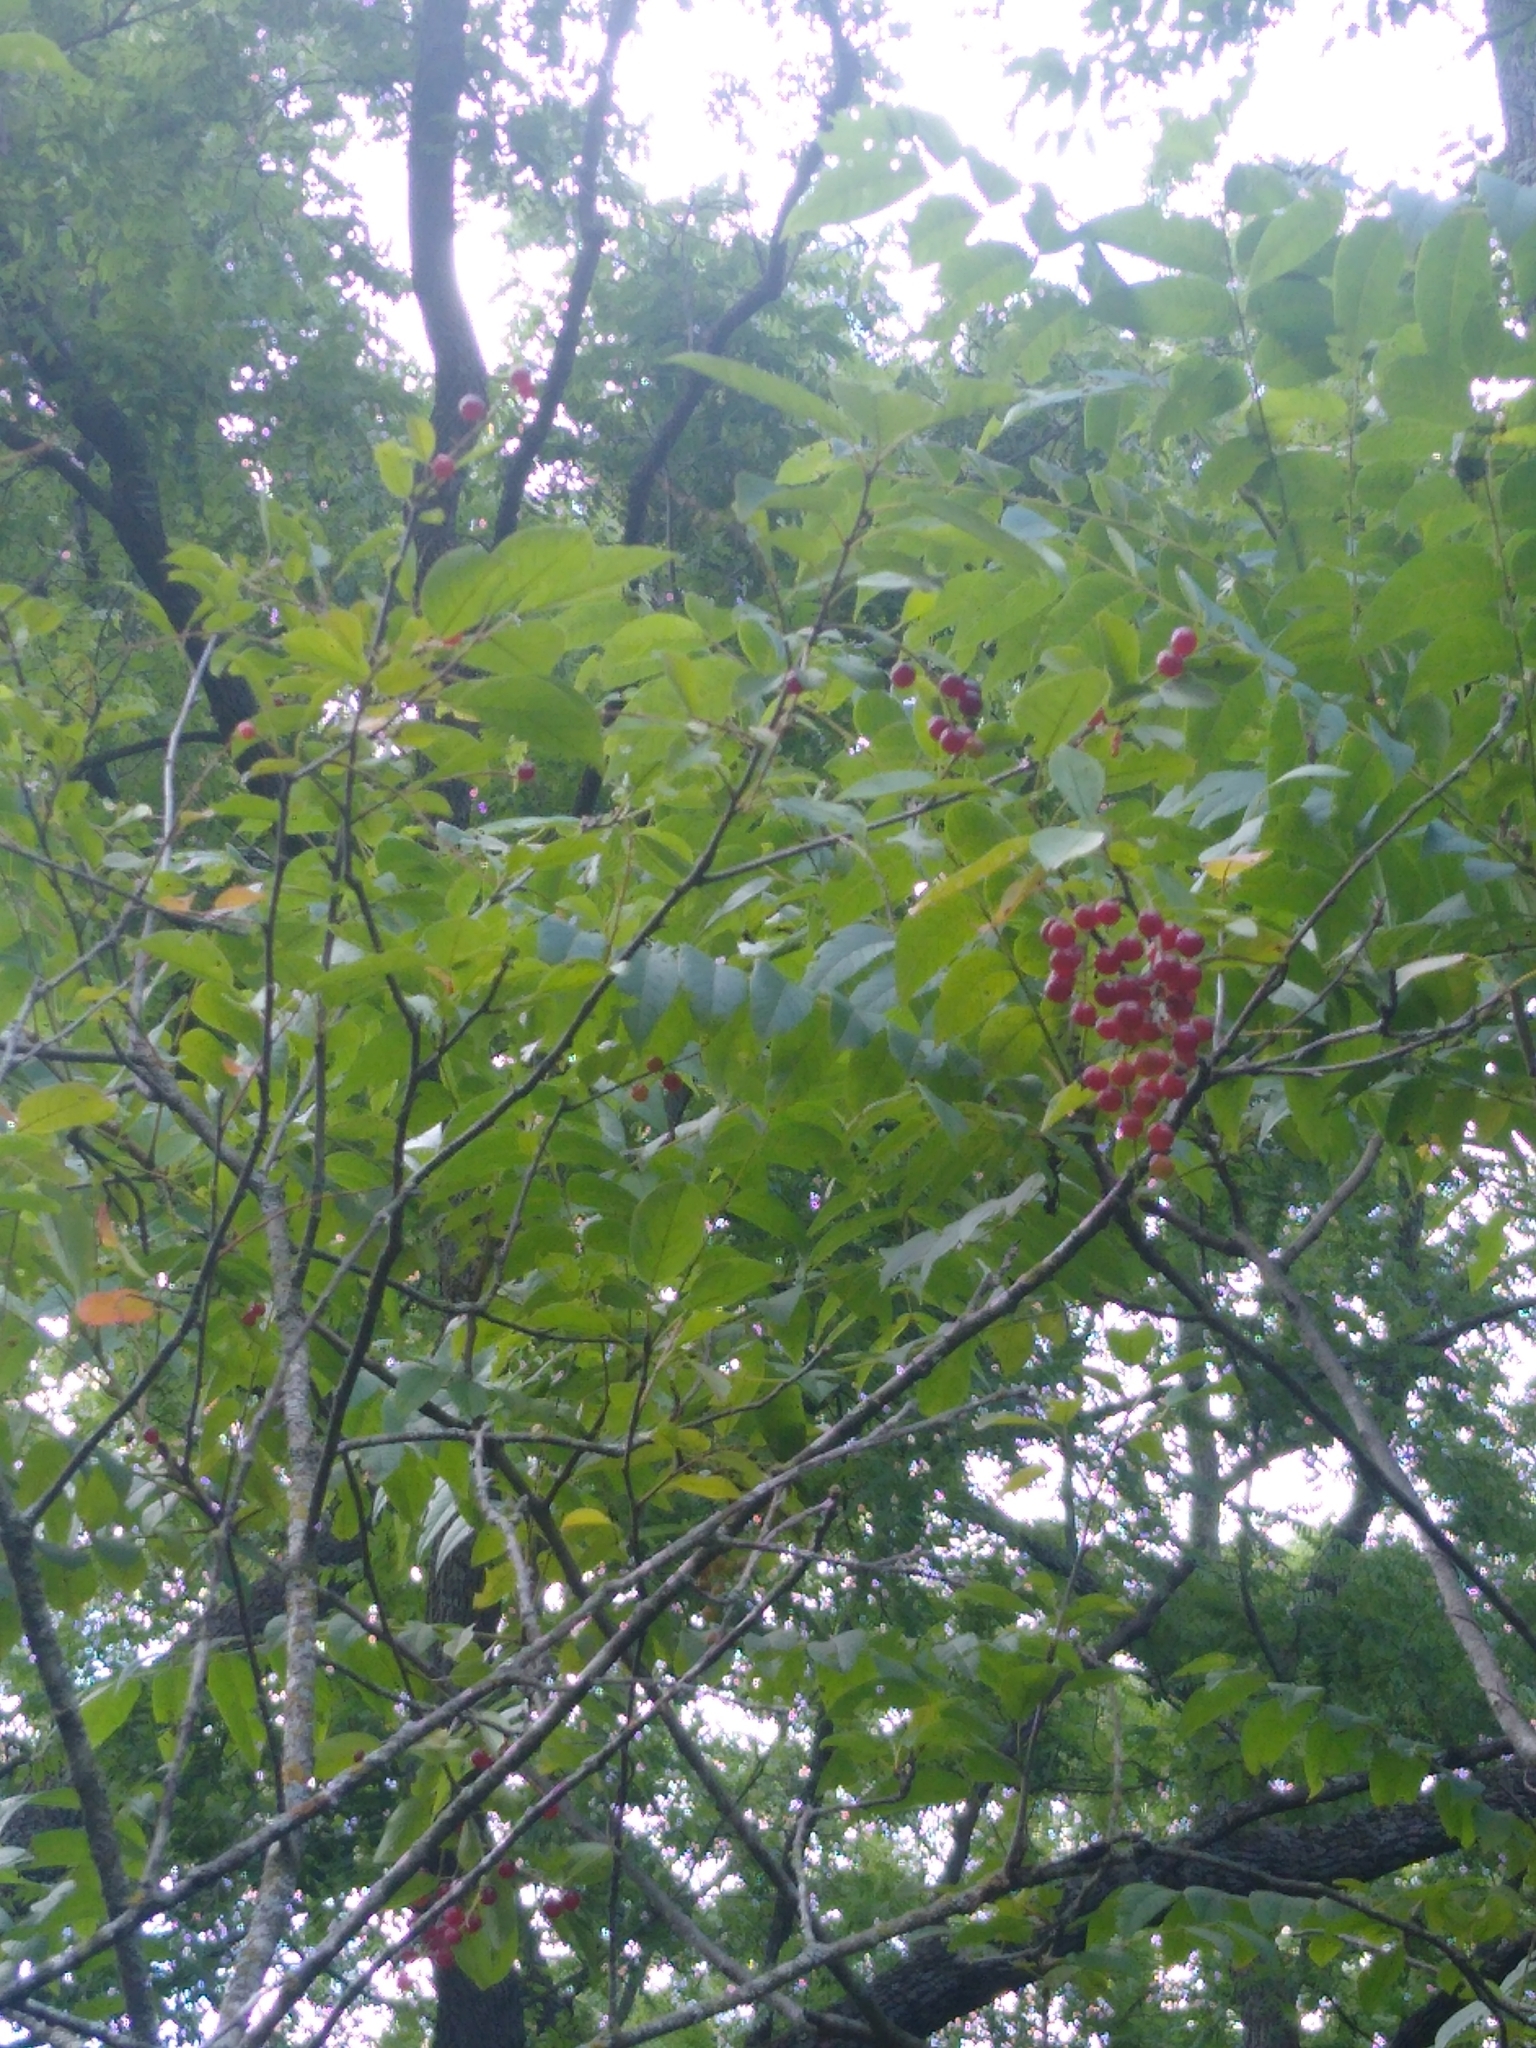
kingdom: Plantae
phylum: Tracheophyta
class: Magnoliopsida
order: Rosales
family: Rosaceae
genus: Prunus
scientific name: Prunus virginiana
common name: Chokecherry
